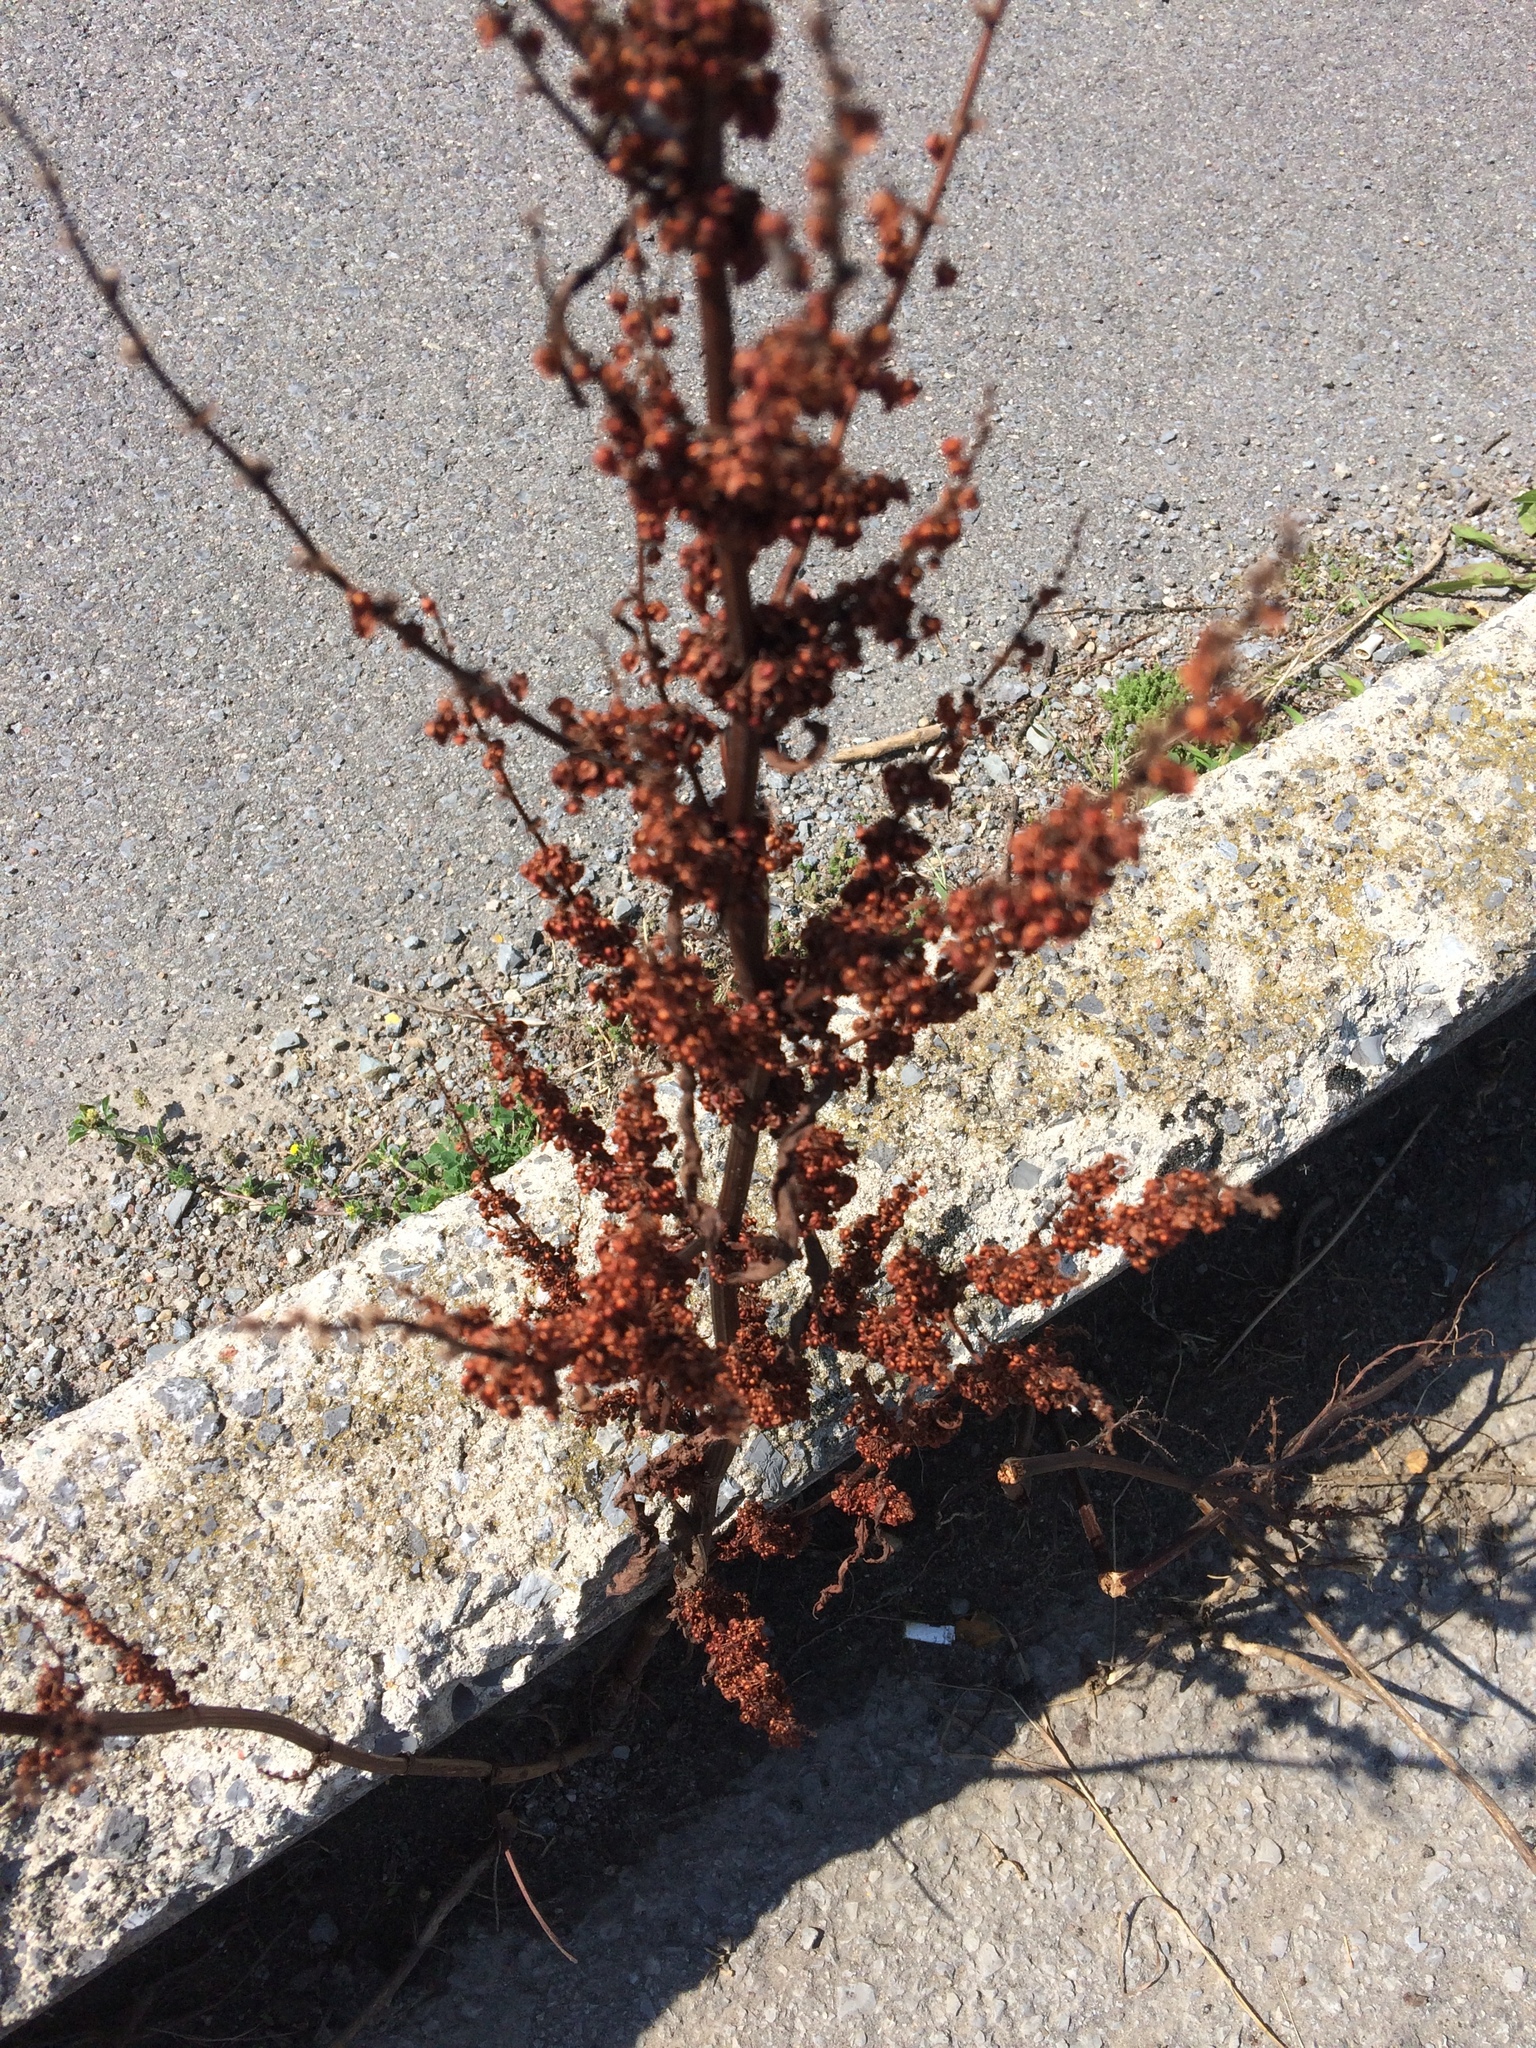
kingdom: Plantae
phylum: Tracheophyta
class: Magnoliopsida
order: Caryophyllales
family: Polygonaceae
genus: Rumex
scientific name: Rumex crispus
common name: Curled dock
